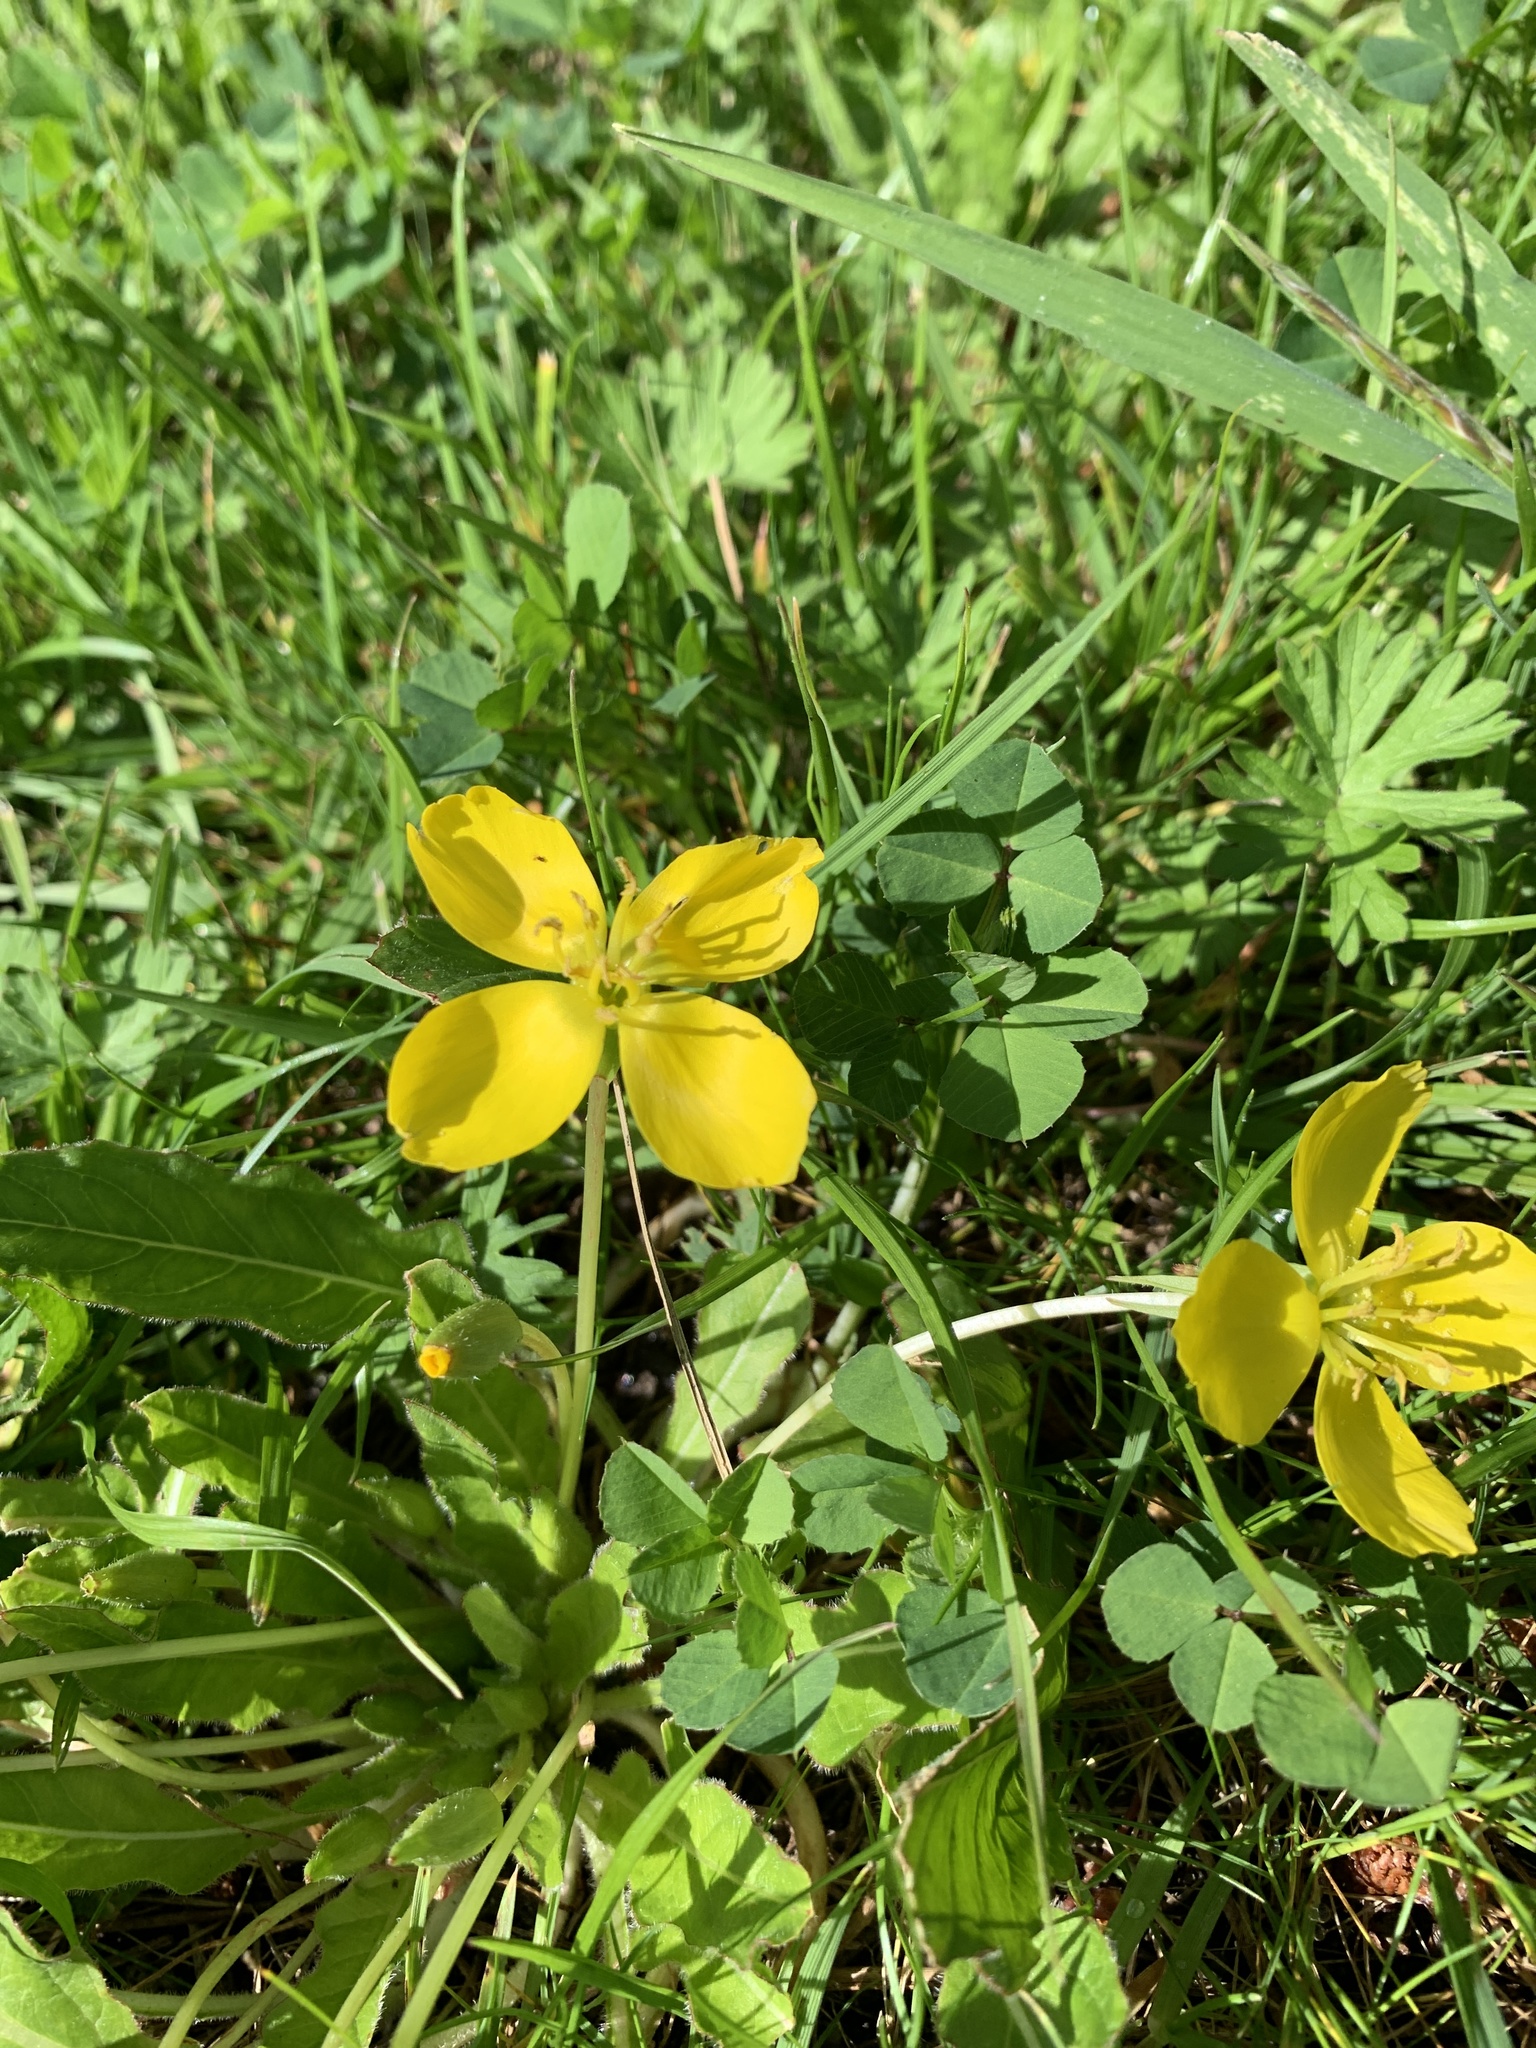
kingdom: Plantae
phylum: Tracheophyta
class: Magnoliopsida
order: Myrtales
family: Onagraceae
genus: Taraxia
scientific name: Taraxia ovata
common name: Goldeneggs
